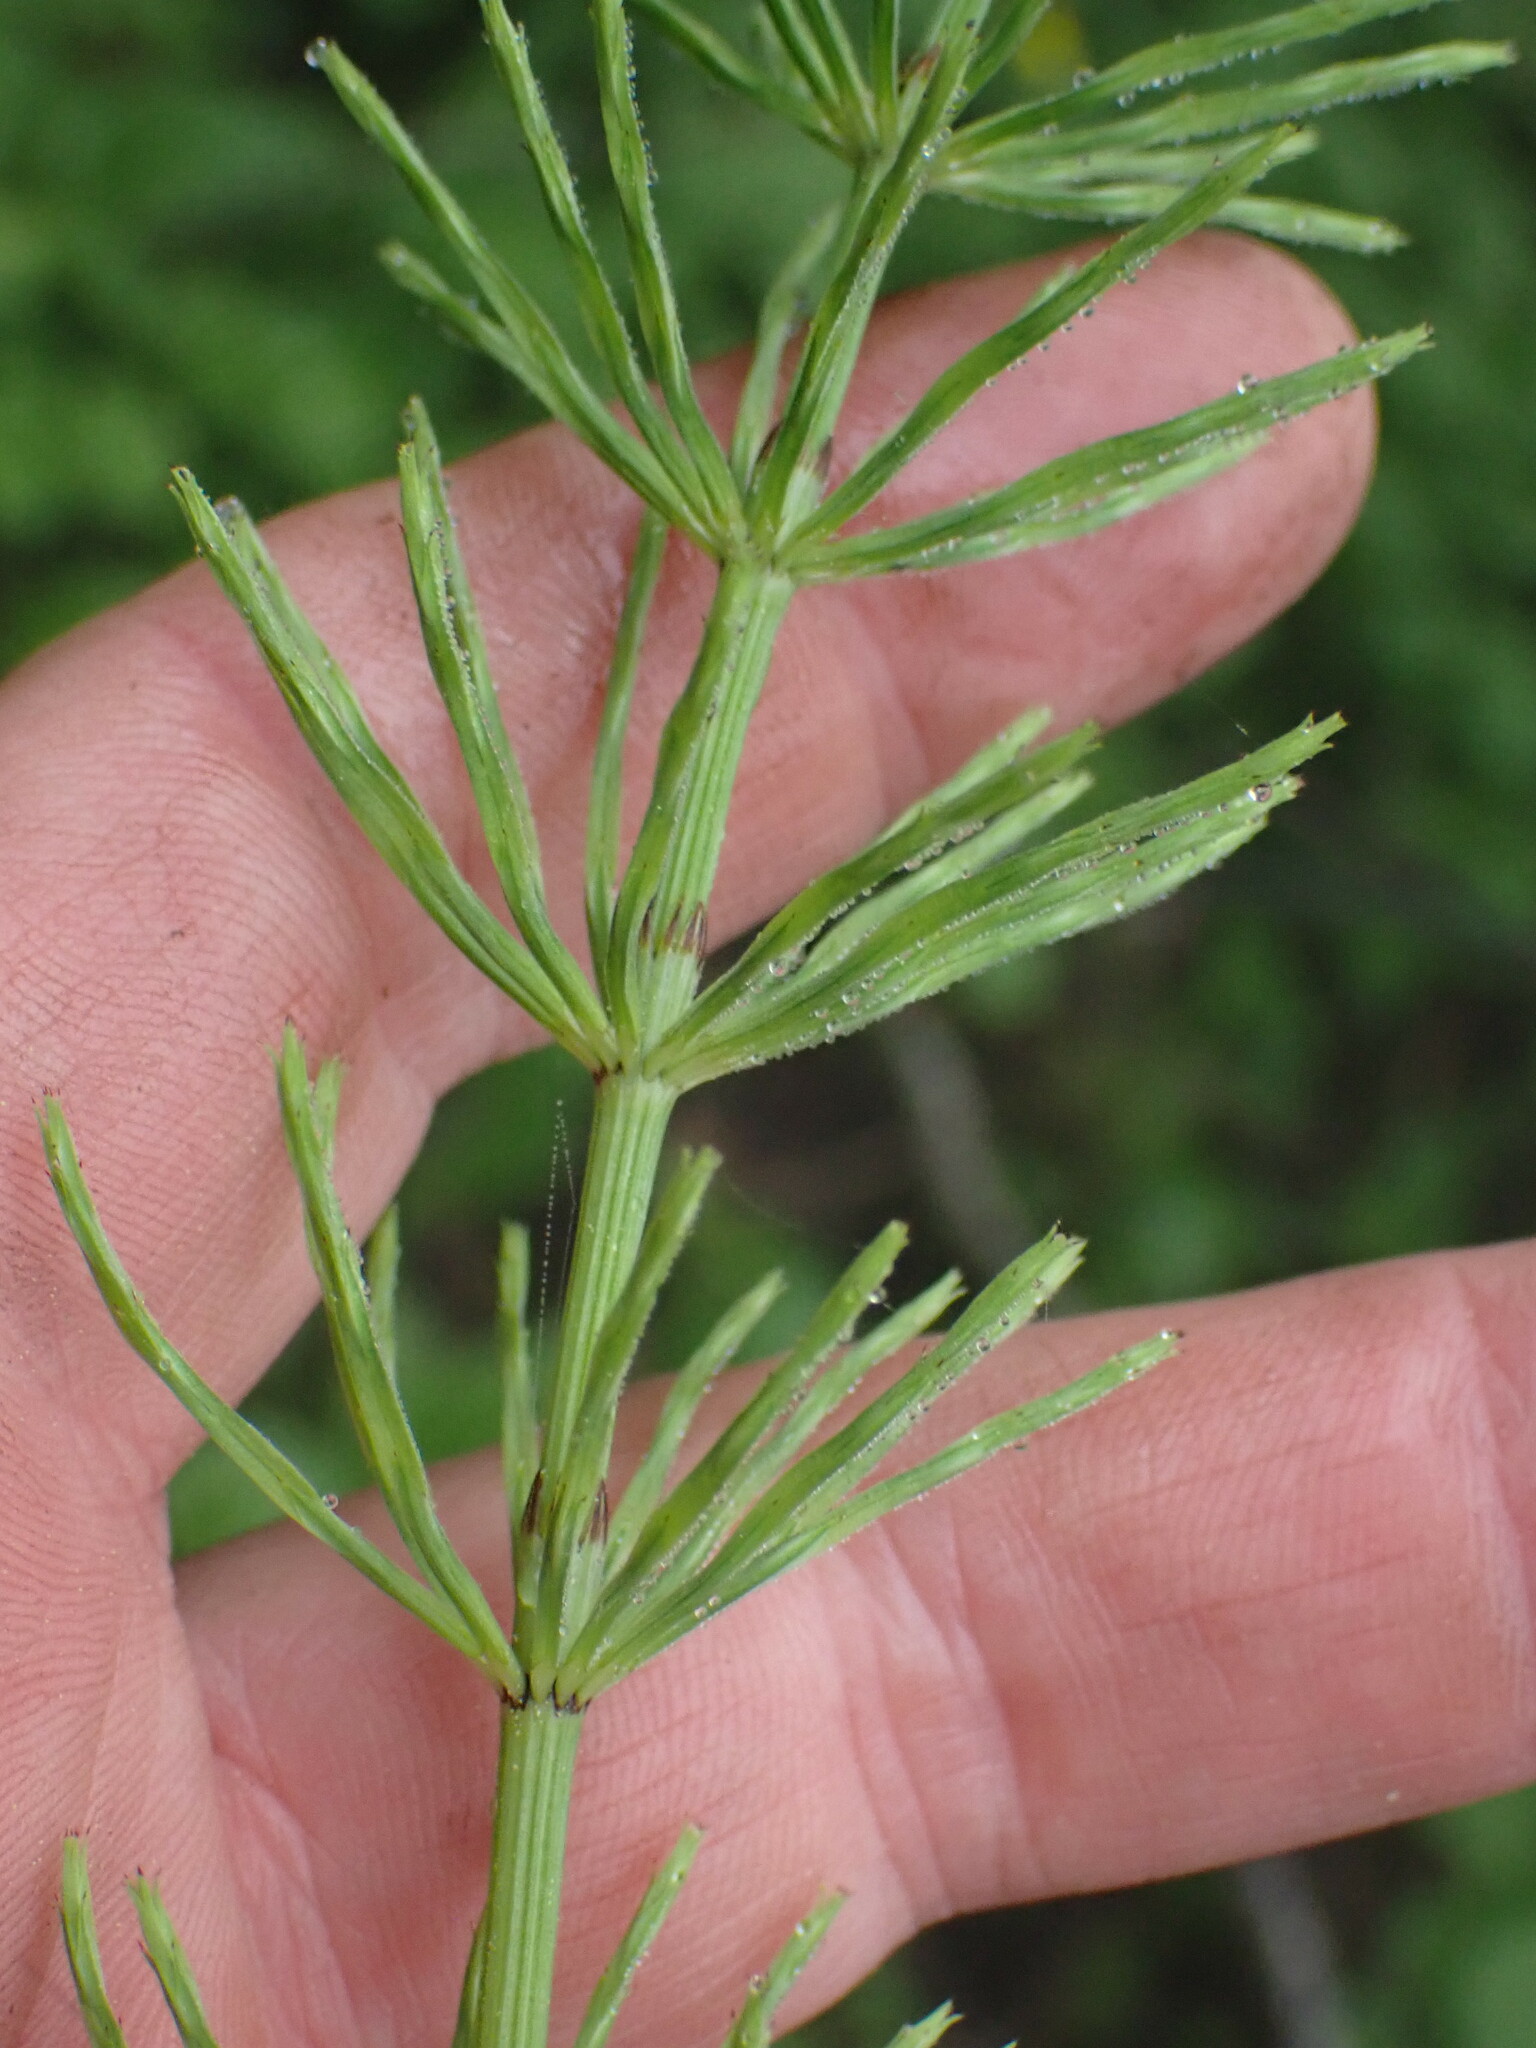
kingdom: Plantae
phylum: Tracheophyta
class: Polypodiopsida
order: Equisetales
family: Equisetaceae
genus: Equisetum
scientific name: Equisetum arvense
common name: Field horsetail
